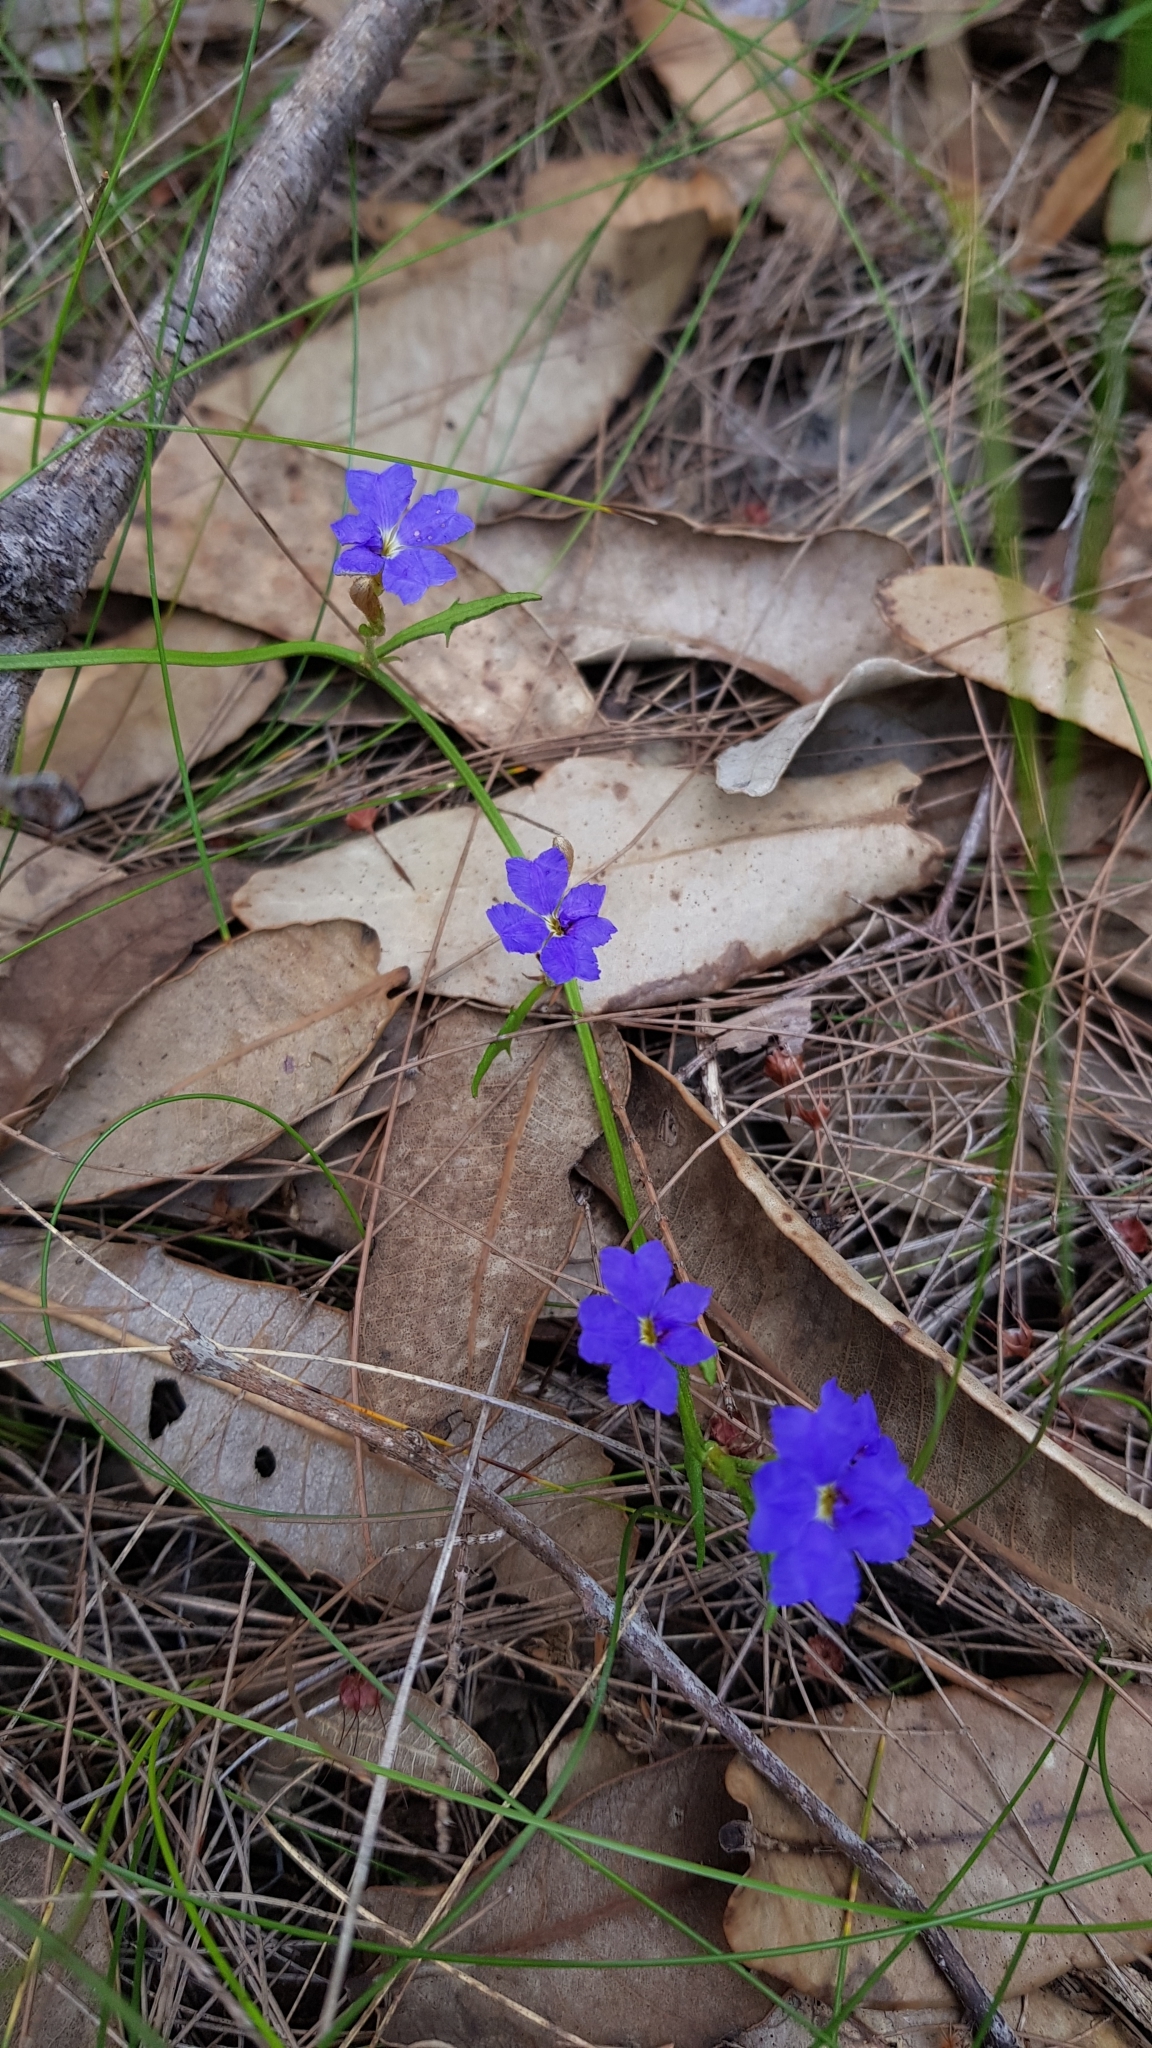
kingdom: Plantae
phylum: Tracheophyta
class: Magnoliopsida
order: Asterales
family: Goodeniaceae
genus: Dampiera
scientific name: Dampiera stricta
